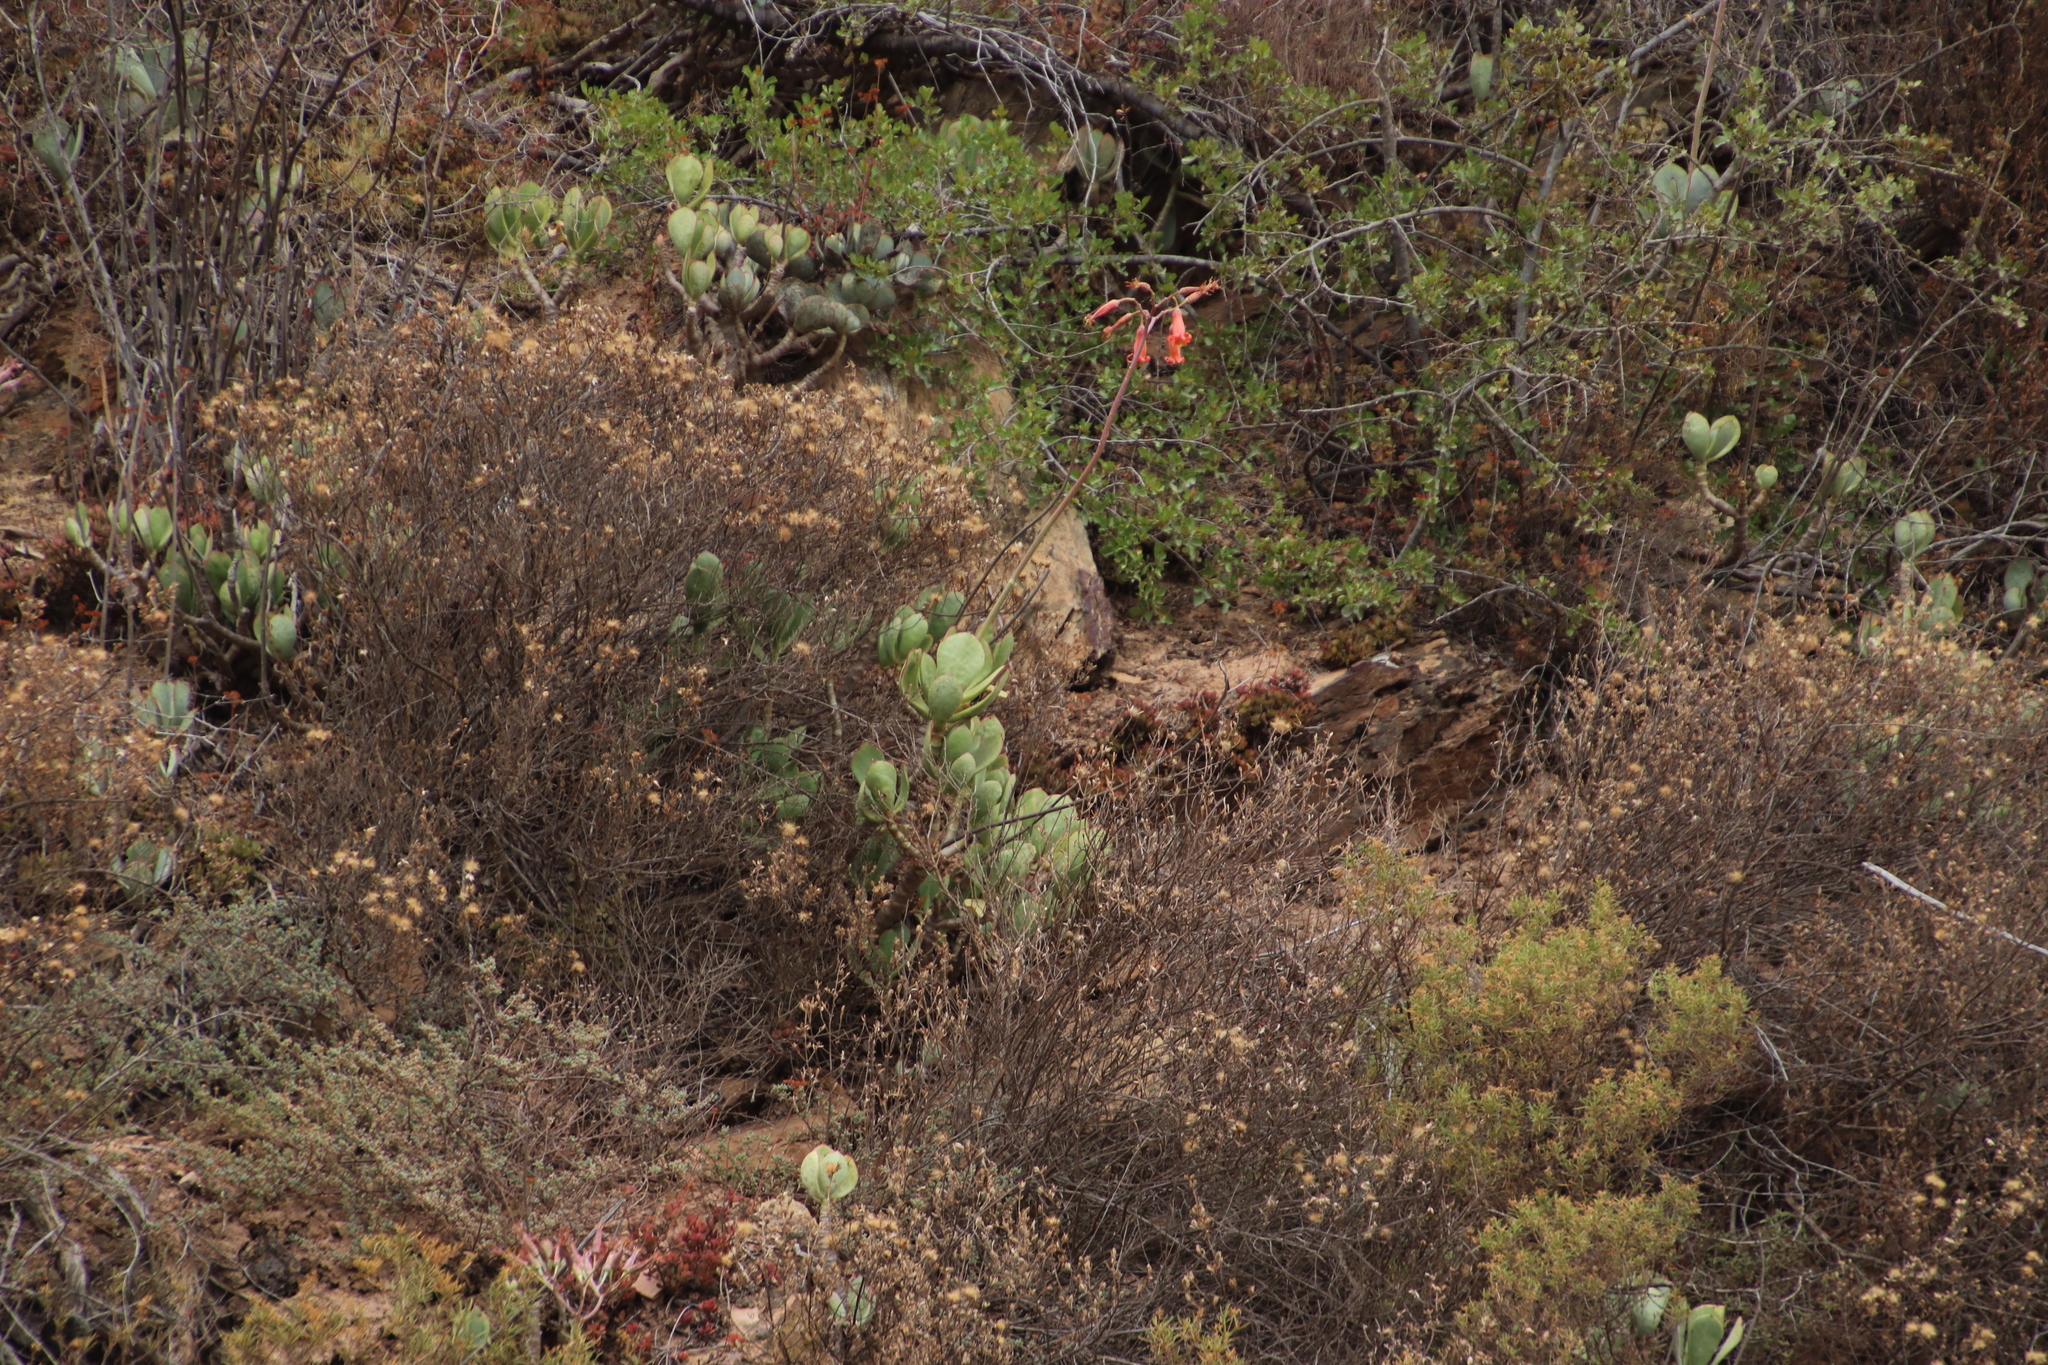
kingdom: Plantae
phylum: Tracheophyta
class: Magnoliopsida
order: Saxifragales
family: Crassulaceae
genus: Cotyledon
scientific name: Cotyledon orbiculata
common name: Pig's ear
